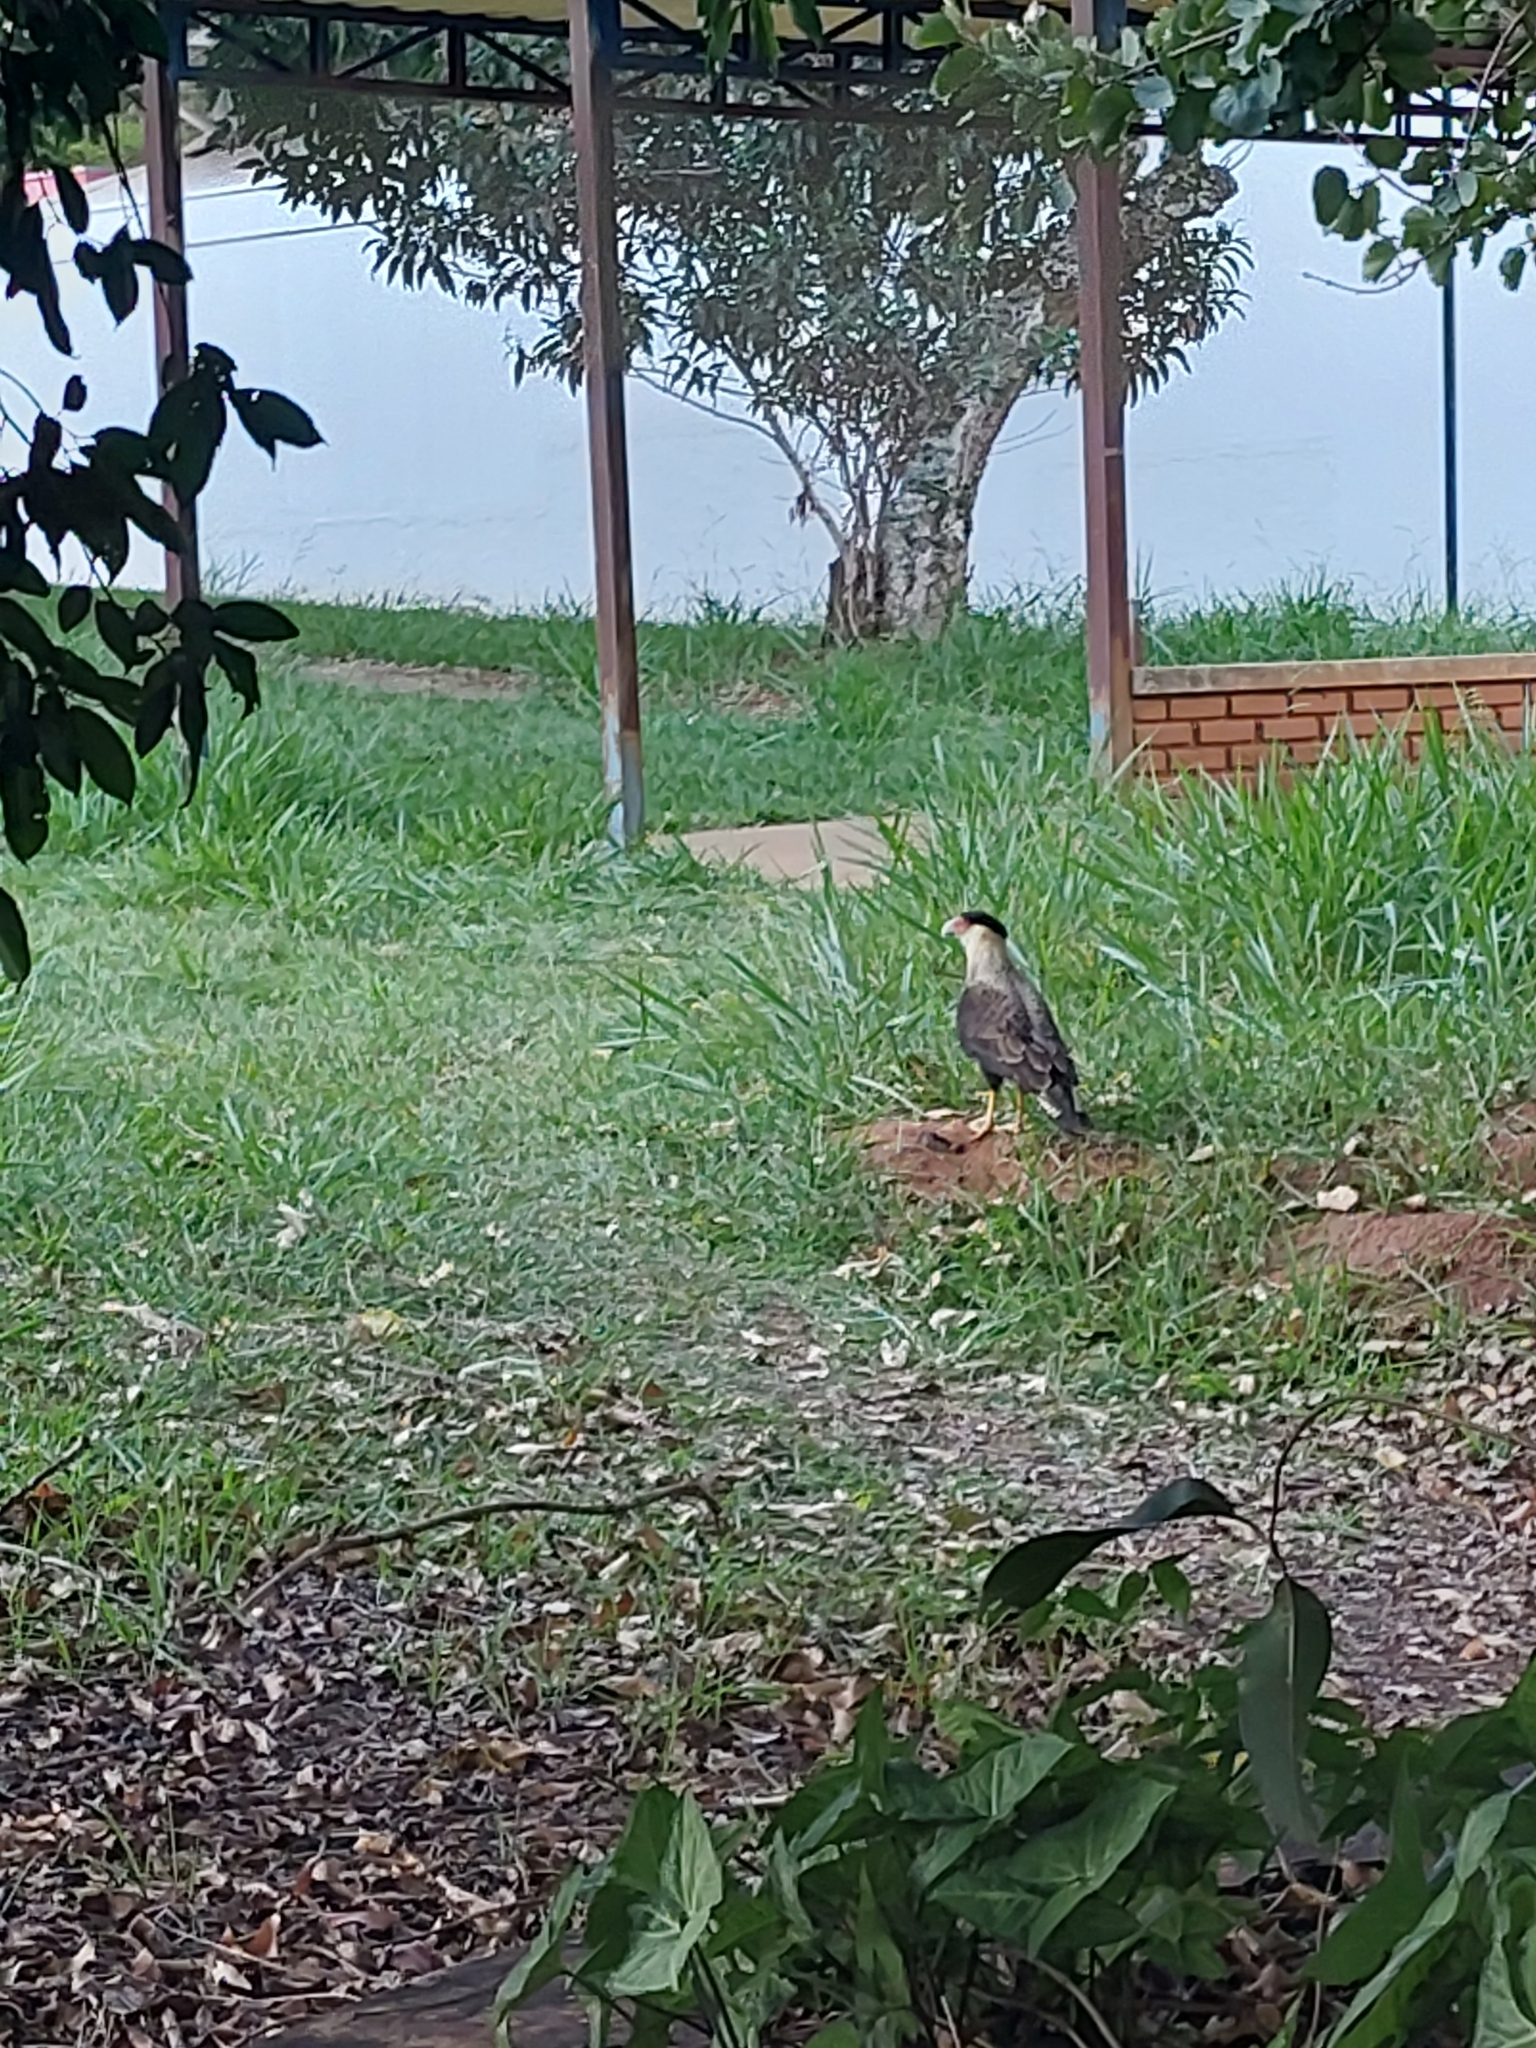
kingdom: Animalia
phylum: Chordata
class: Aves
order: Falconiformes
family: Falconidae
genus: Caracara
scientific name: Caracara plancus
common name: Southern caracara
